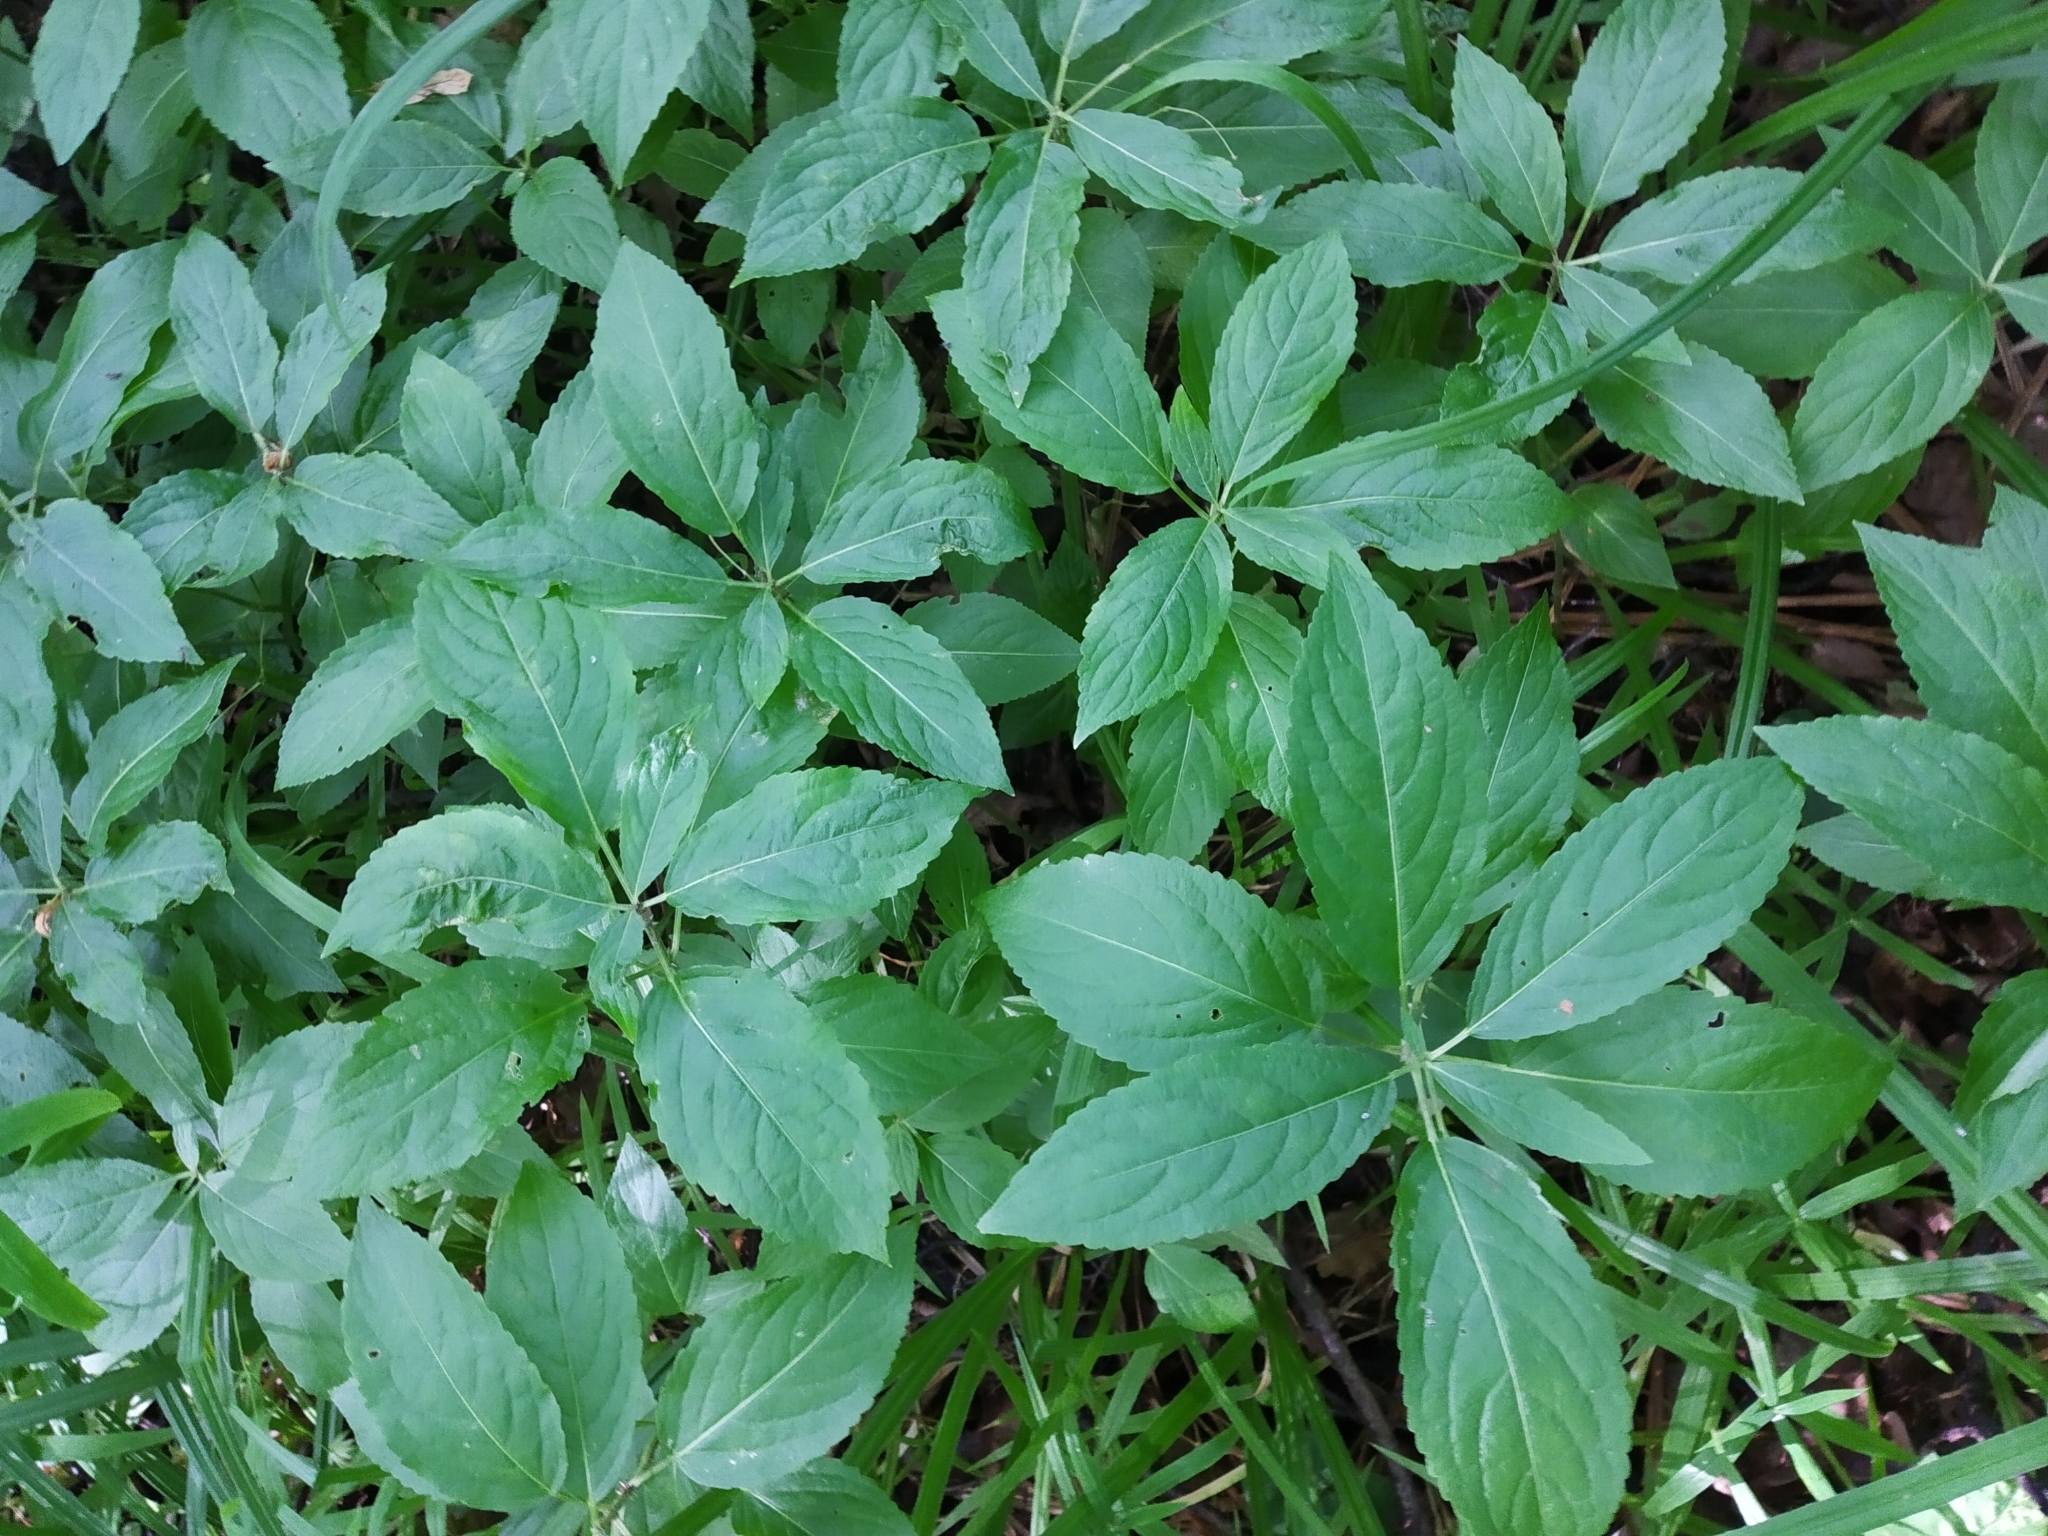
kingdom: Plantae
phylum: Tracheophyta
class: Magnoliopsida
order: Malpighiales
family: Euphorbiaceae
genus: Mercurialis
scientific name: Mercurialis perennis
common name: Dog mercury
